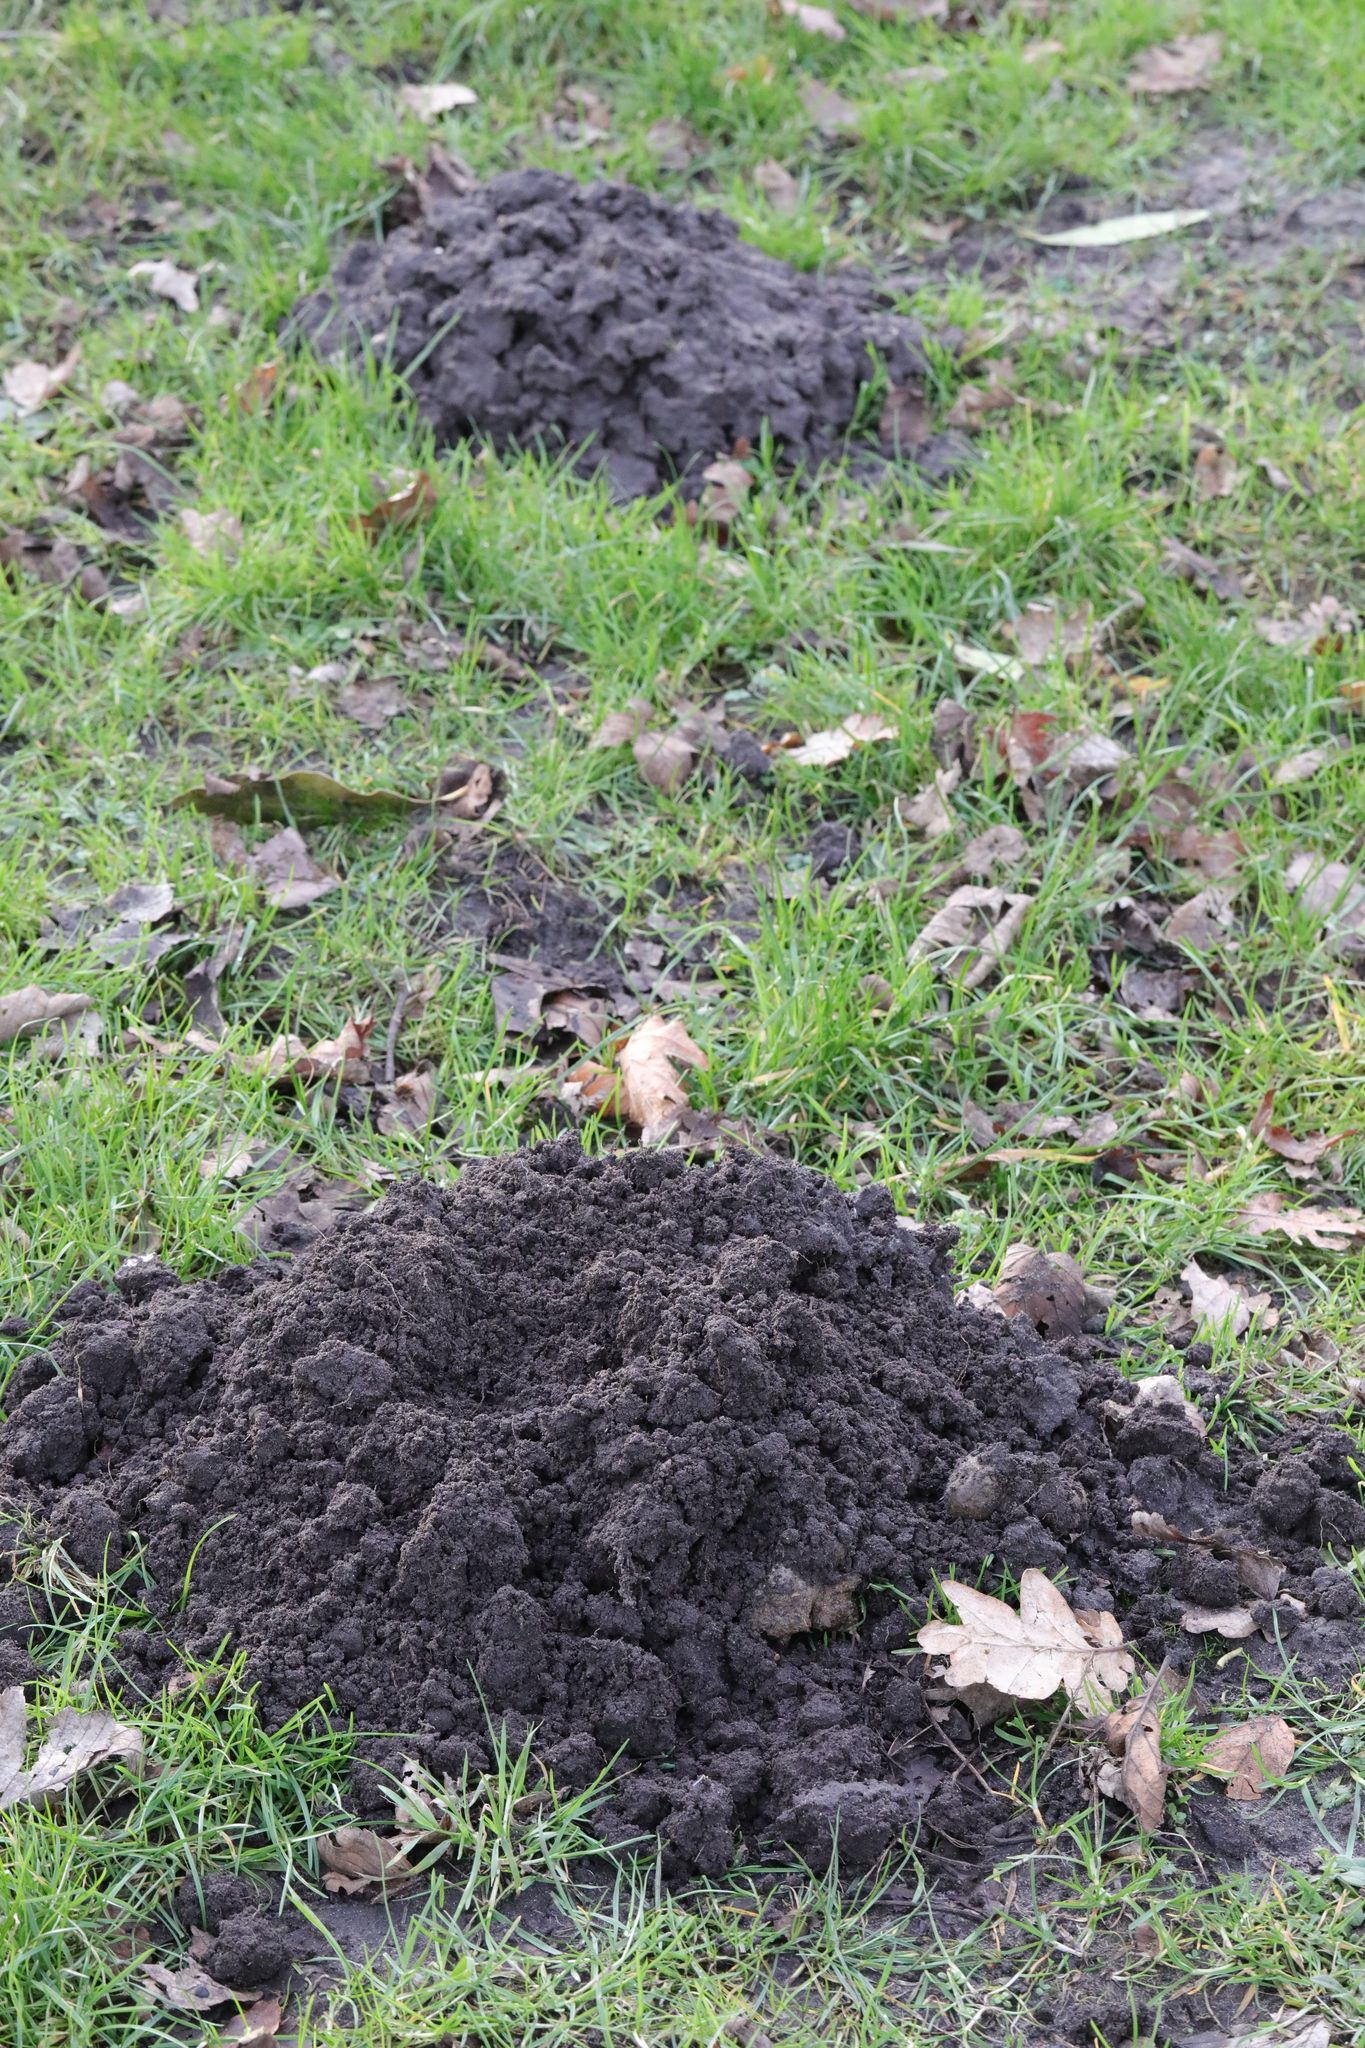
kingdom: Animalia
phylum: Chordata
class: Mammalia
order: Soricomorpha
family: Talpidae
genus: Talpa
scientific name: Talpa europaea
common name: European mole
